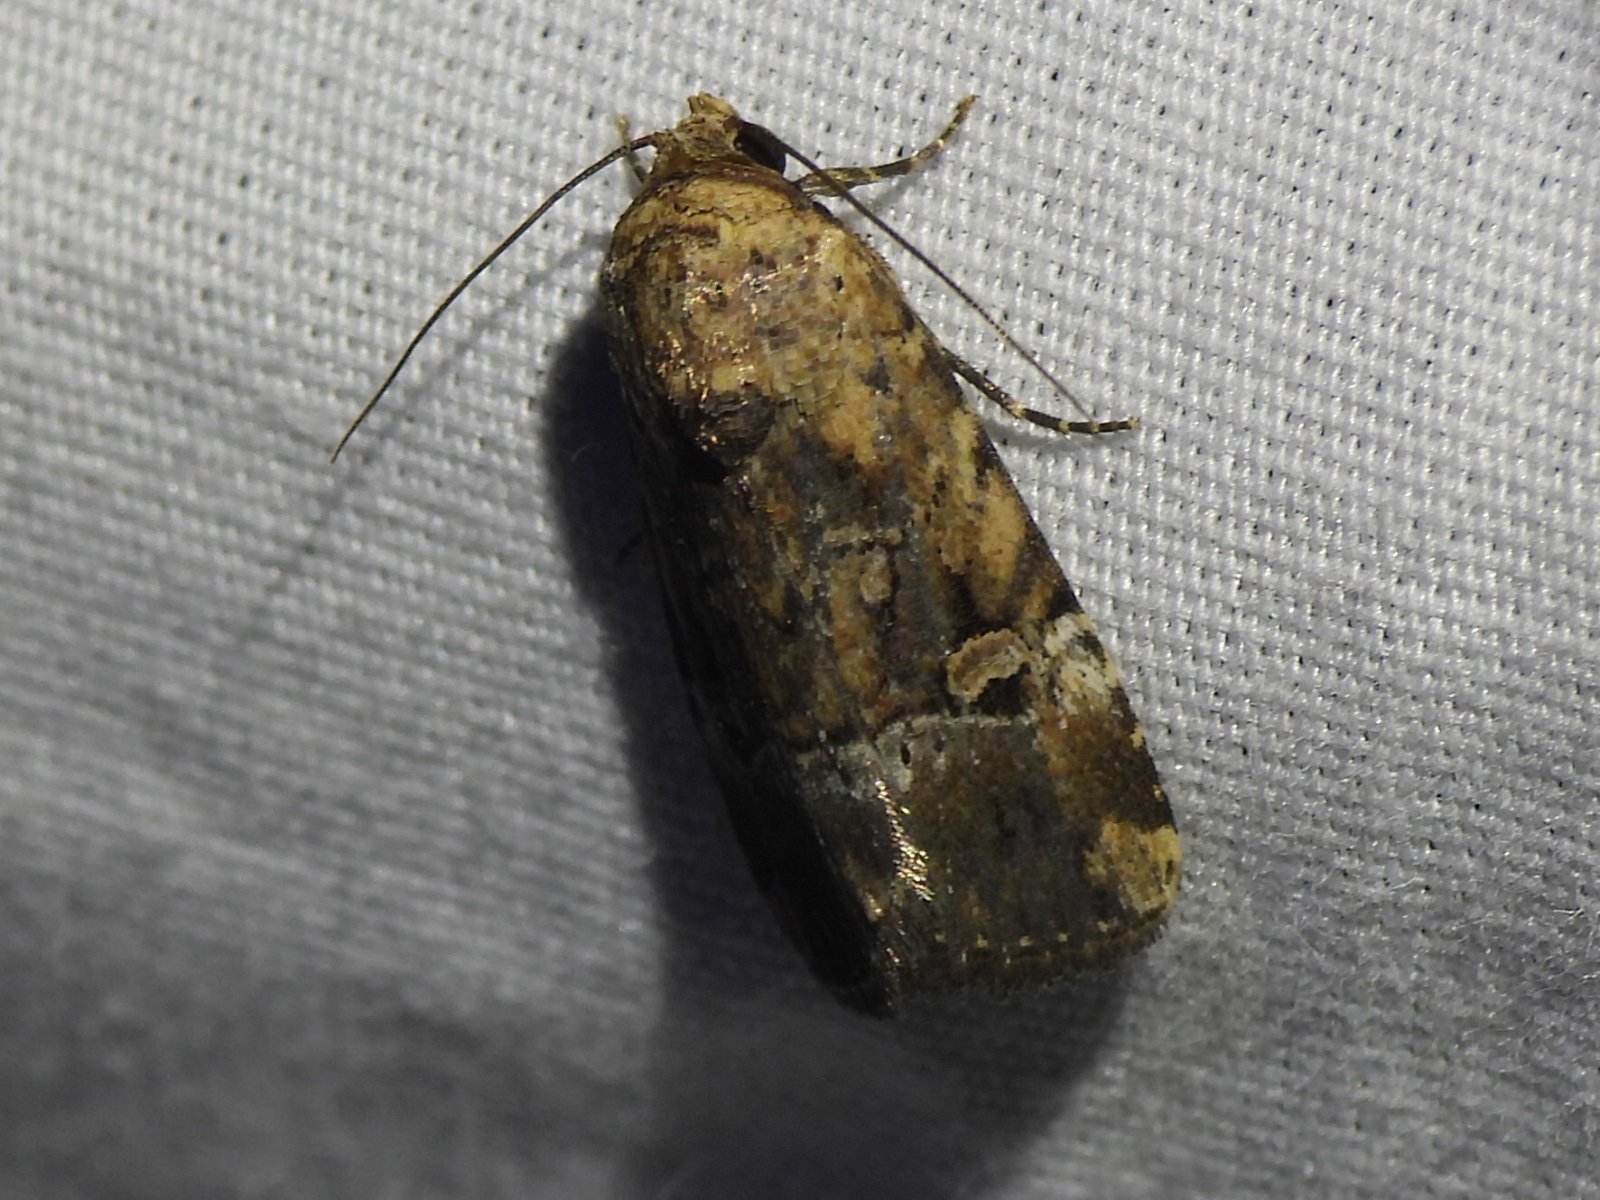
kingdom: Animalia
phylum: Arthropoda
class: Insecta
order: Lepidoptera
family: Noctuidae
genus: Elaphria
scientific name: Elaphria chalcedonia
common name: Chalcedony midget
